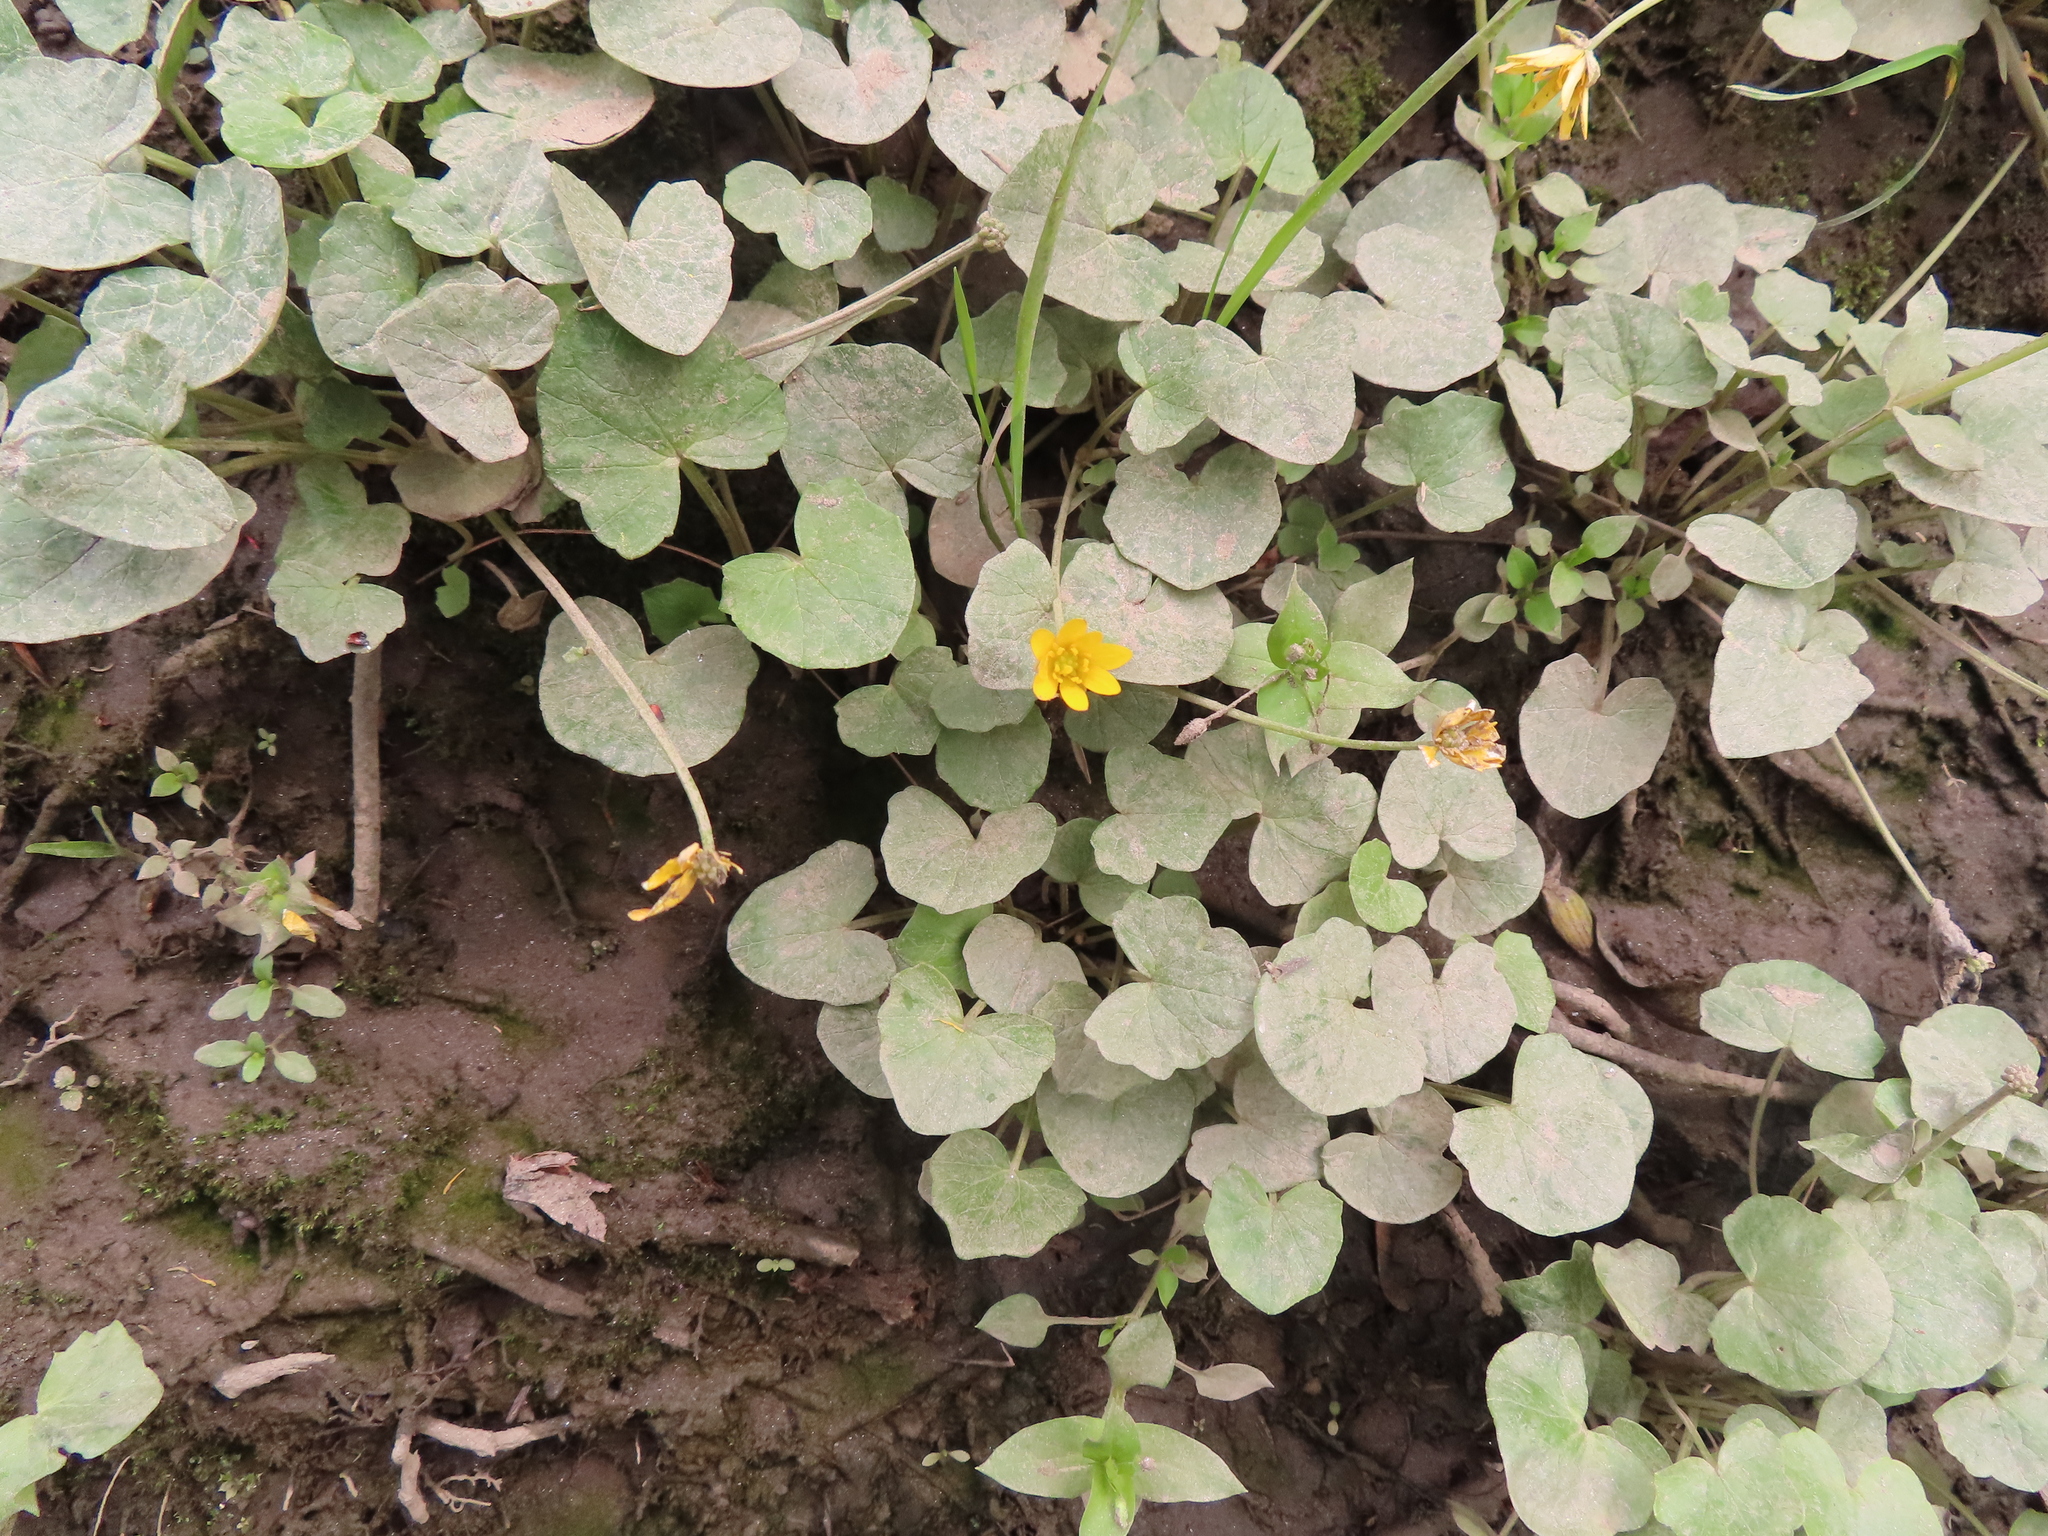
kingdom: Plantae
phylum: Tracheophyta
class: Magnoliopsida
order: Ranunculales
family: Ranunculaceae
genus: Ficaria
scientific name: Ficaria verna
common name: Lesser celandine
